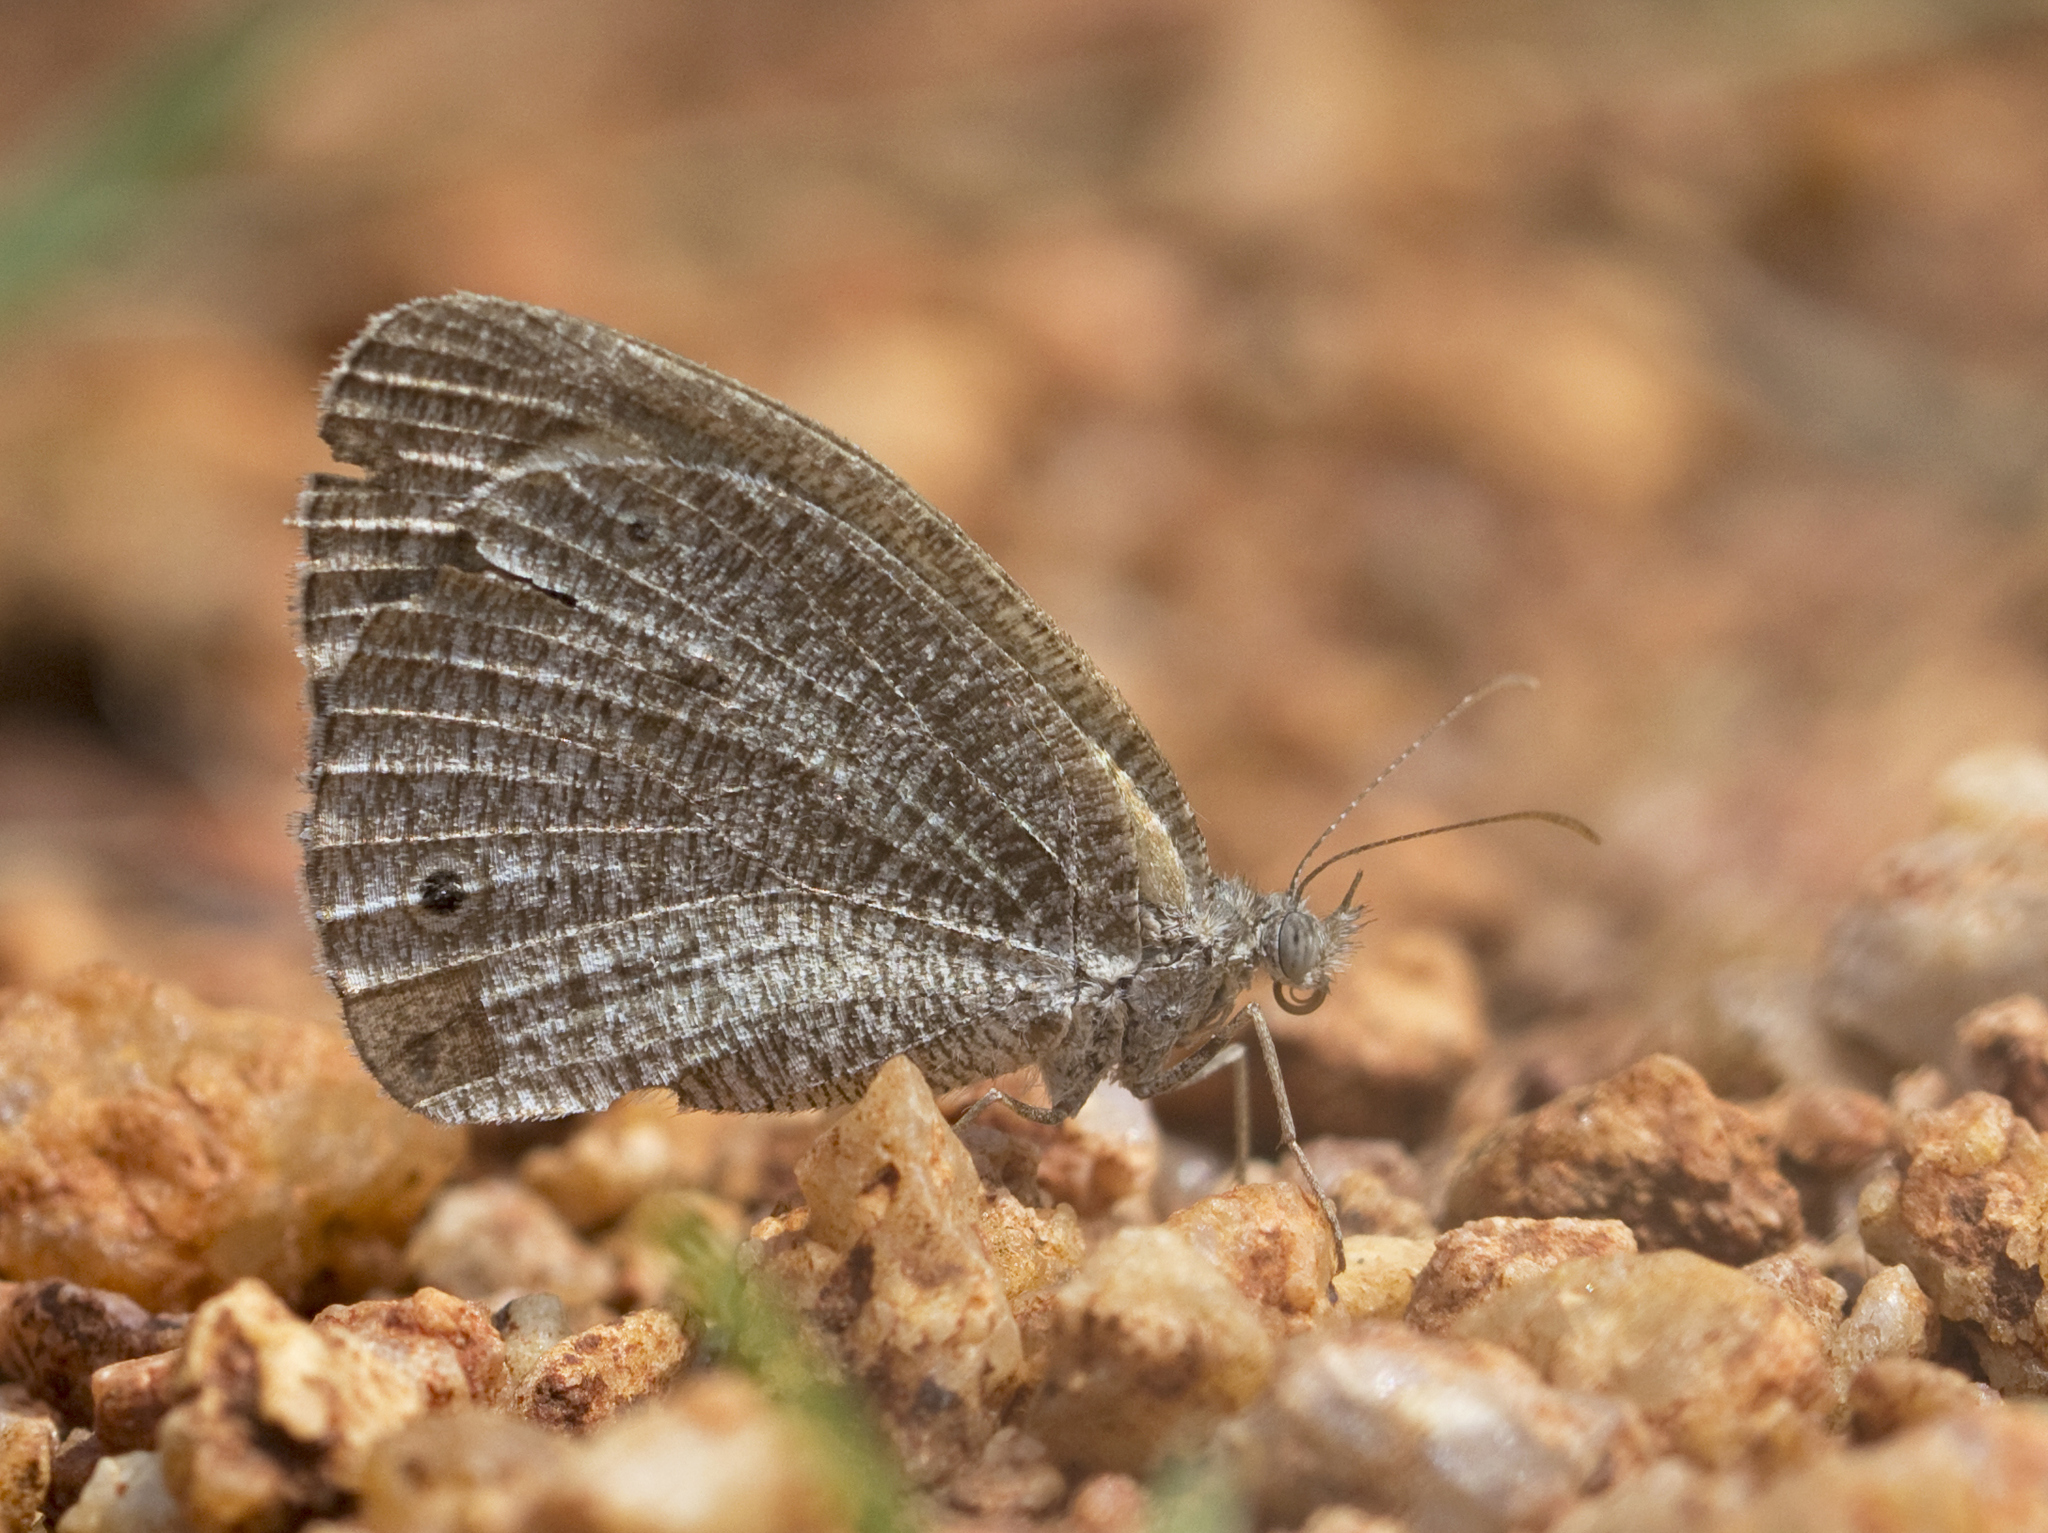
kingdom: Animalia
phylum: Arthropoda
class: Insecta
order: Lepidoptera
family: Nymphalidae
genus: Ypthima
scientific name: Ypthima asterope
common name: African ringlet
